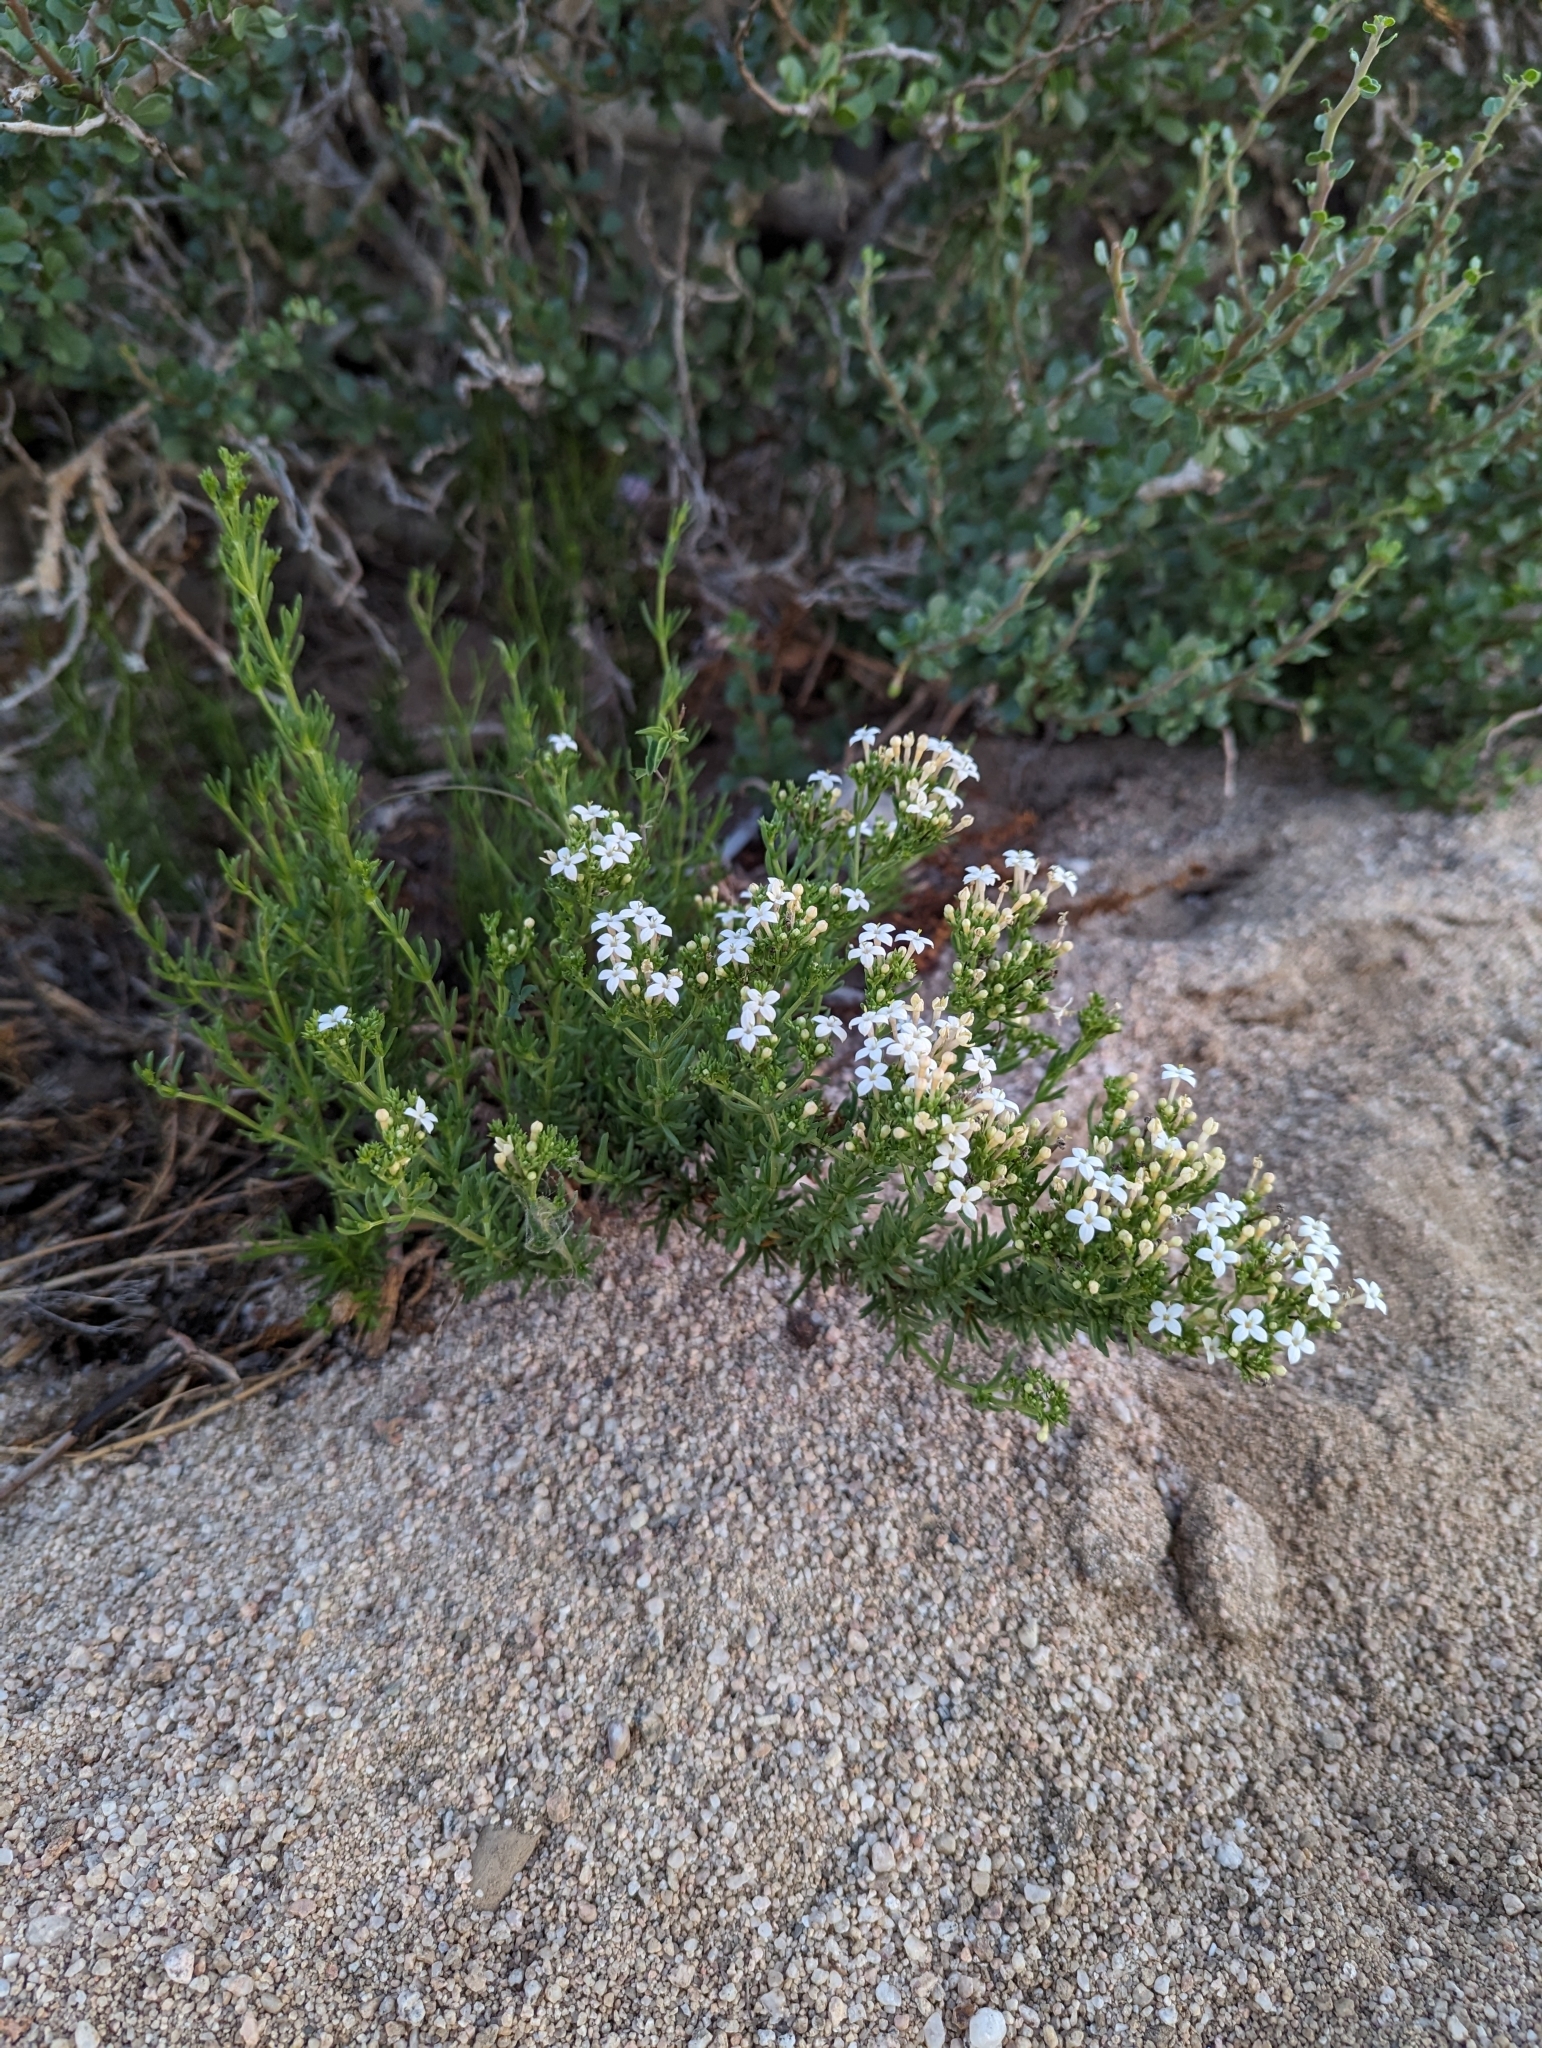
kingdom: Plantae
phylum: Tracheophyta
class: Magnoliopsida
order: Gentianales
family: Rubiaceae
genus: Stenotis
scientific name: Stenotis mucronata
